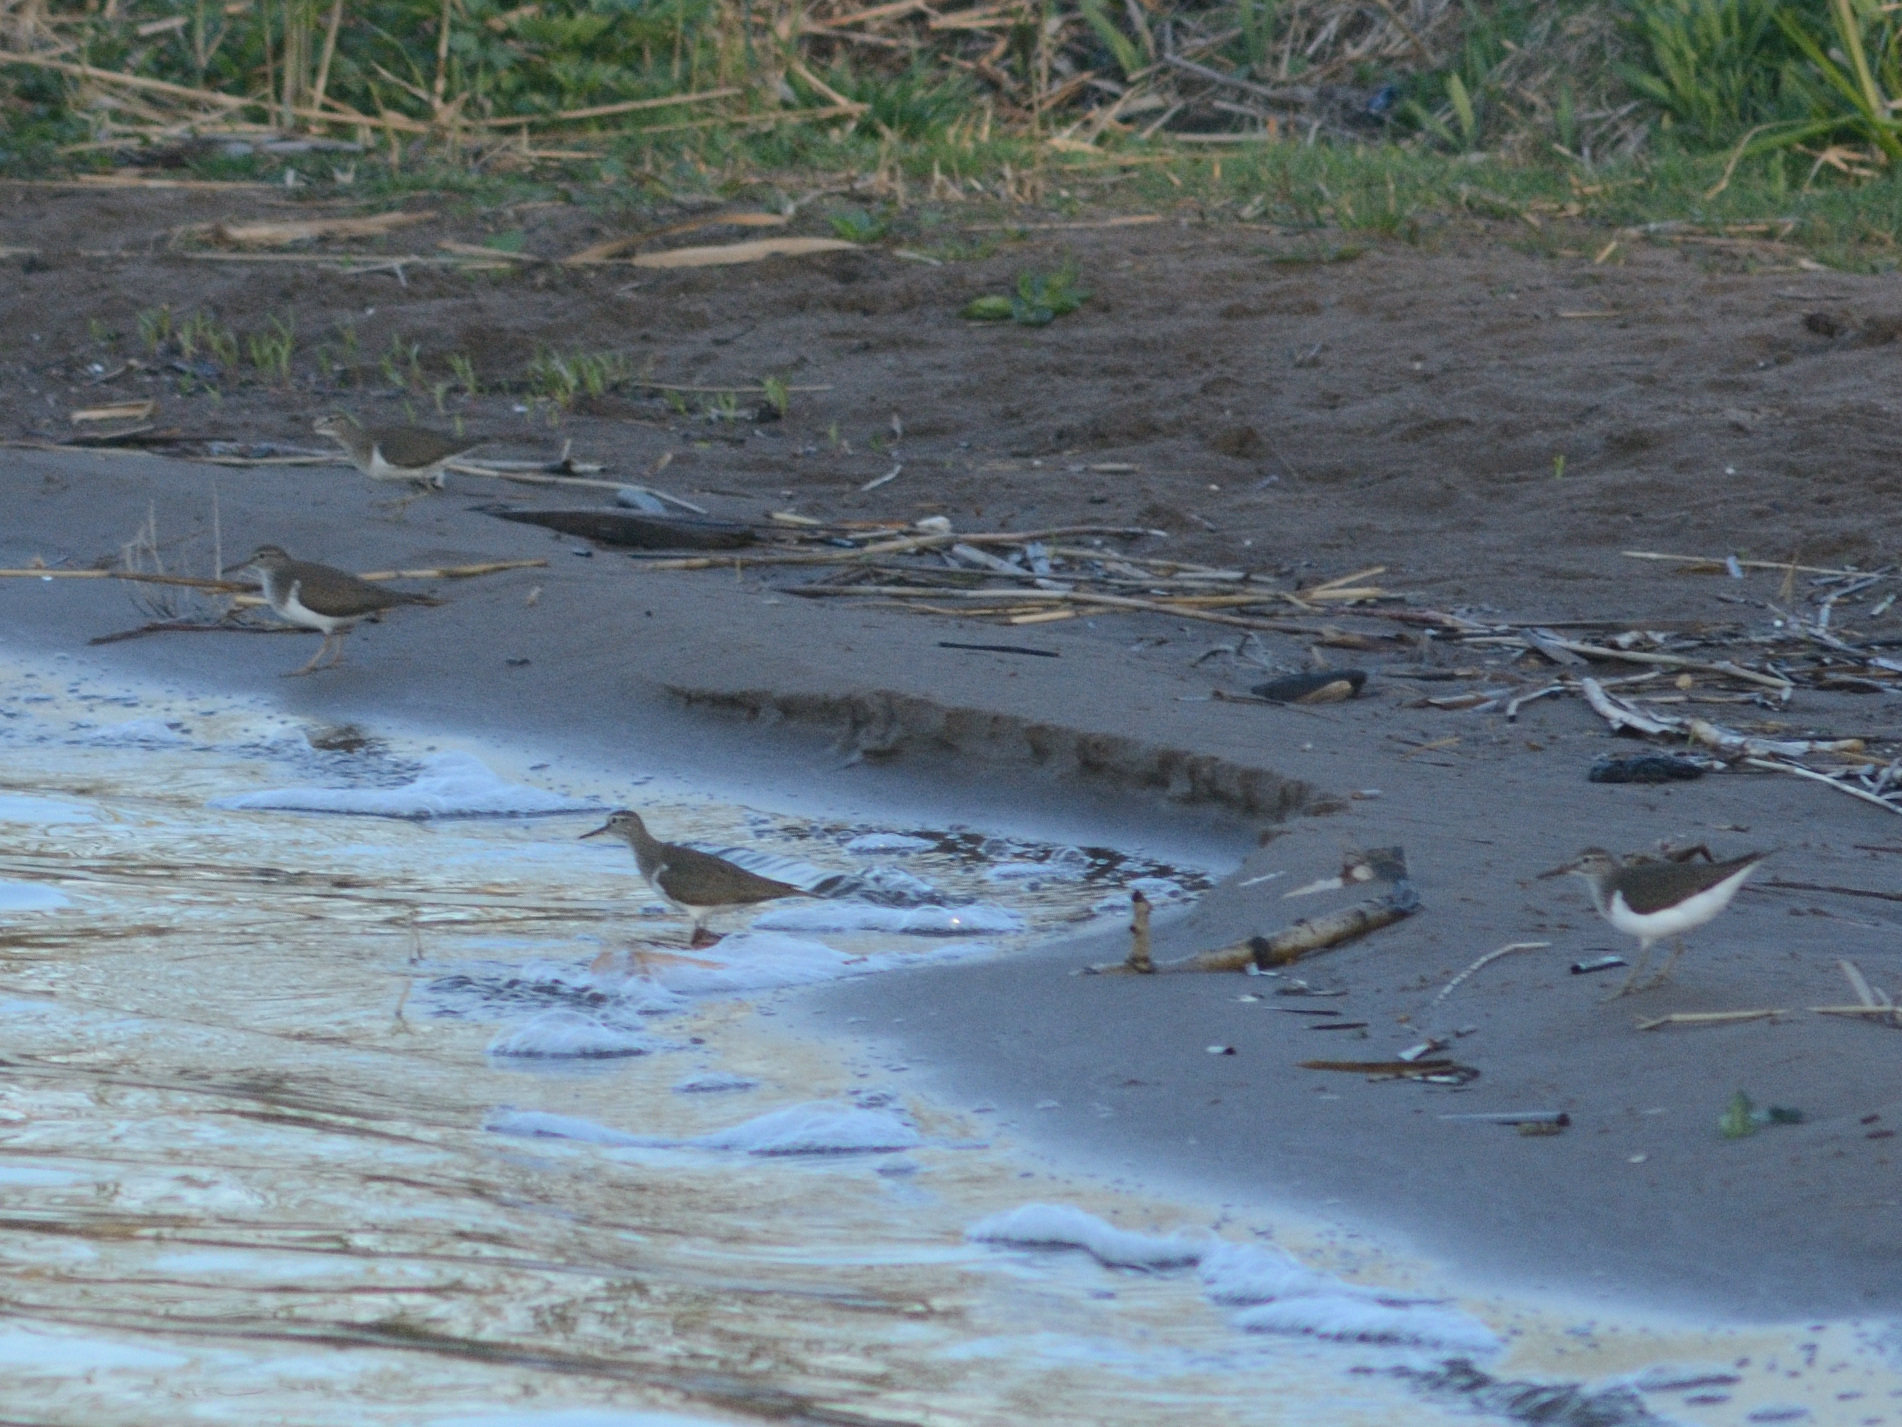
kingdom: Animalia
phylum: Chordata
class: Aves
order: Charadriiformes
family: Scolopacidae
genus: Actitis
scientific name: Actitis hypoleucos
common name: Common sandpiper
